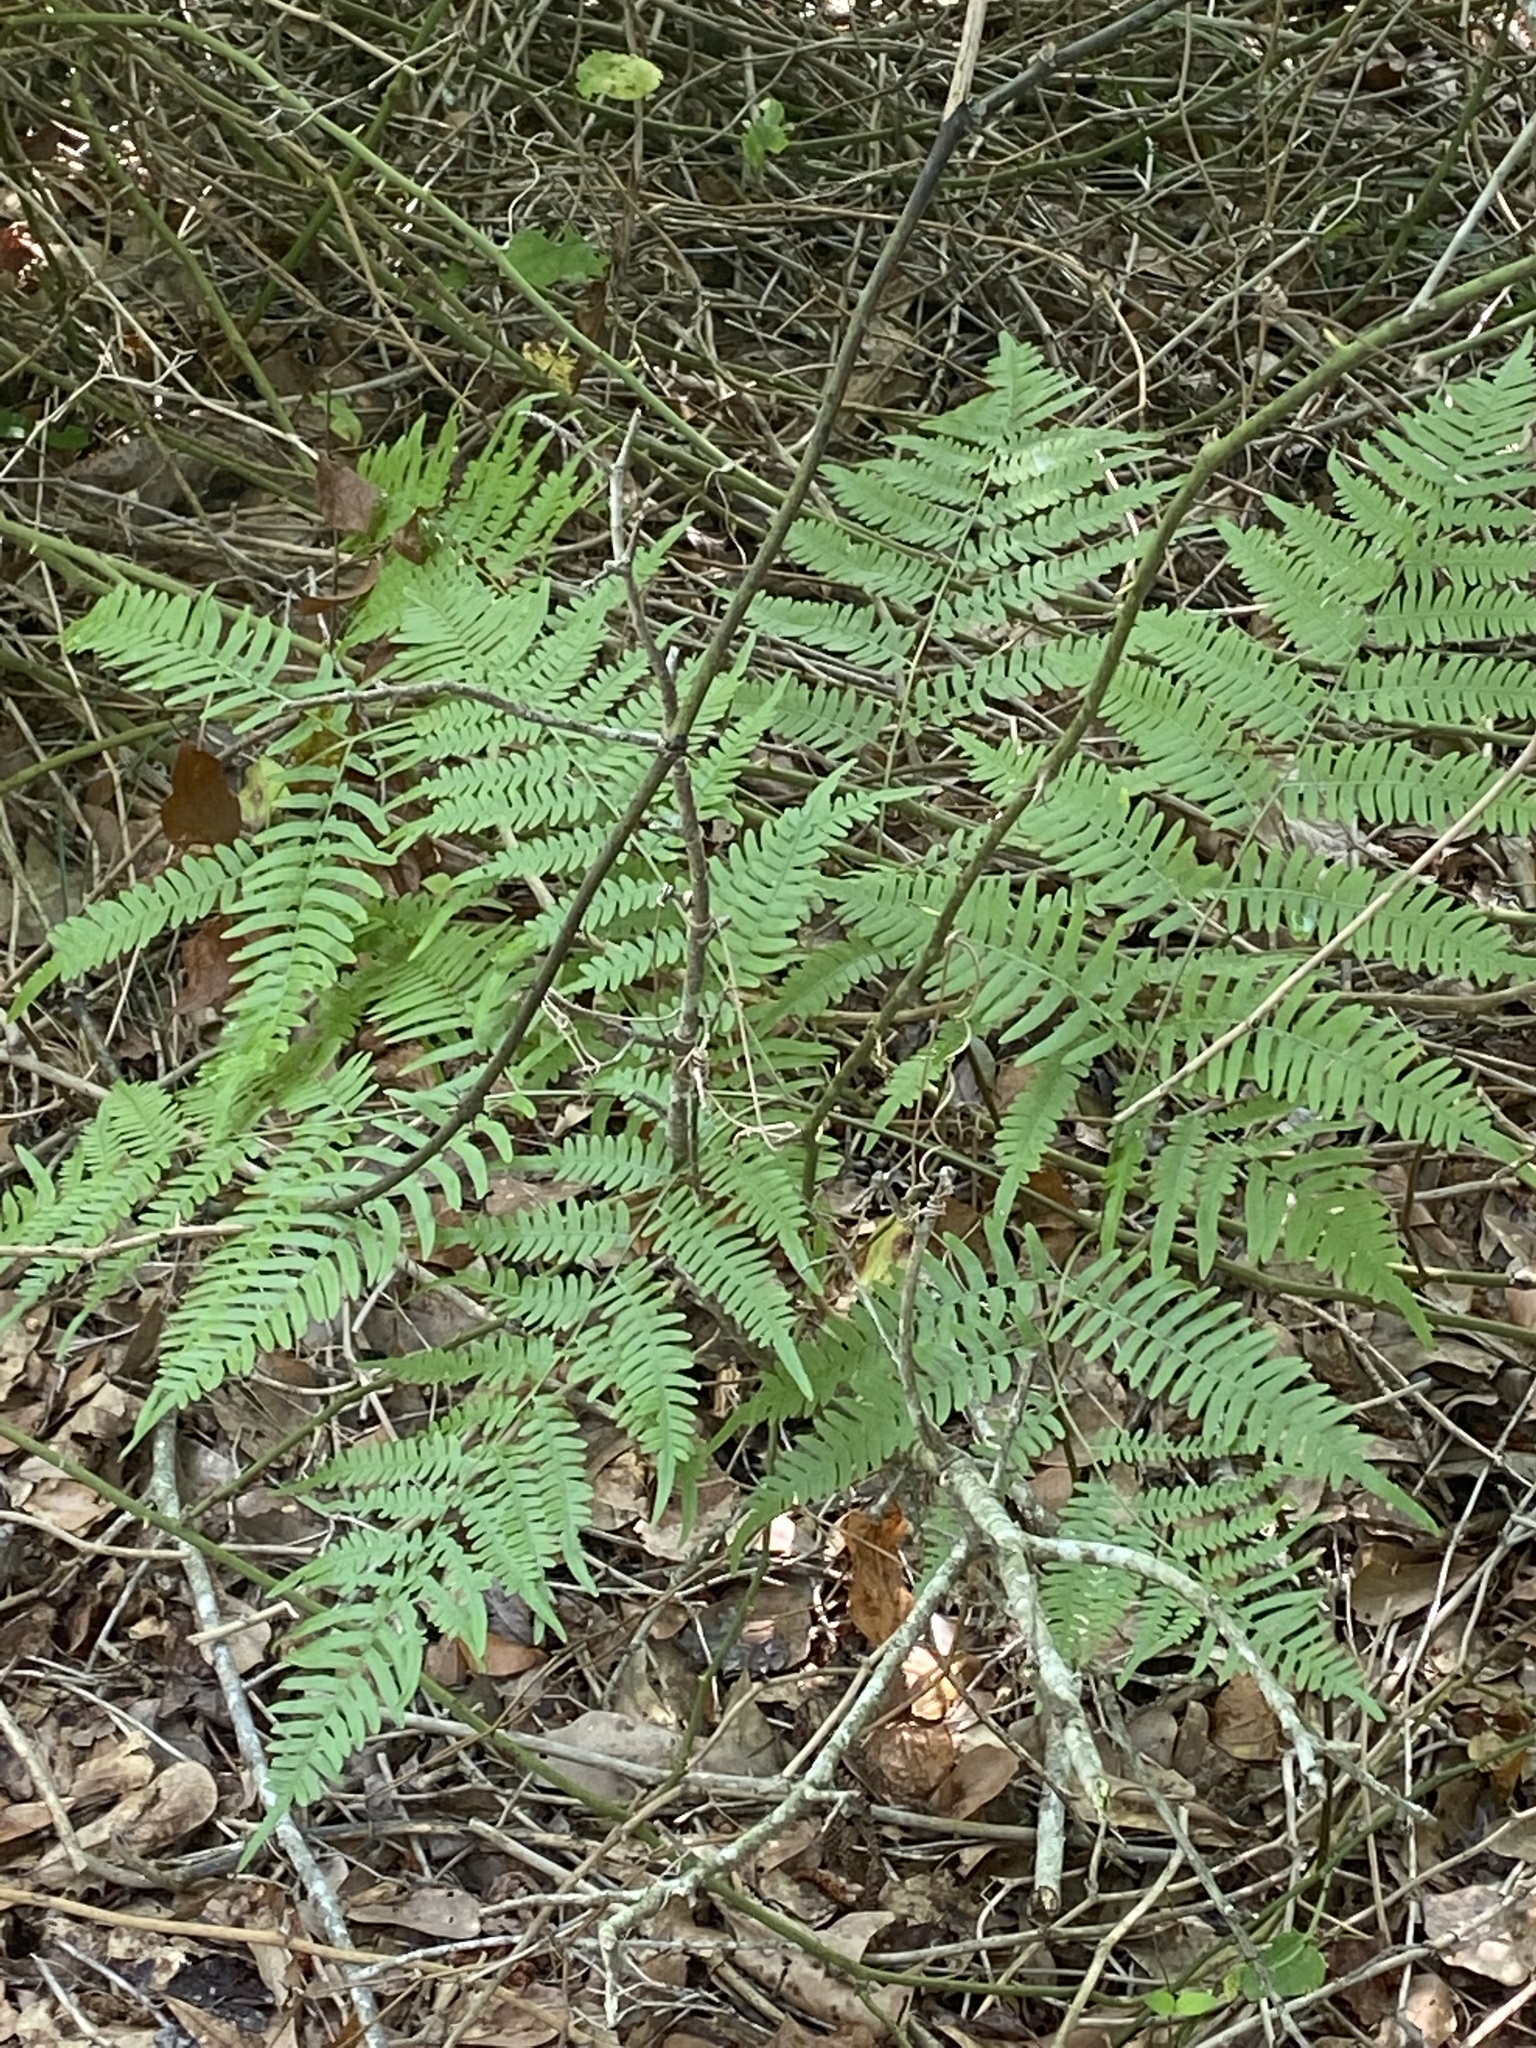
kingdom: Plantae
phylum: Tracheophyta
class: Polypodiopsida
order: Polypodiales
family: Dennstaedtiaceae
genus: Pteridium
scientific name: Pteridium aquilinum
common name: Bracken
